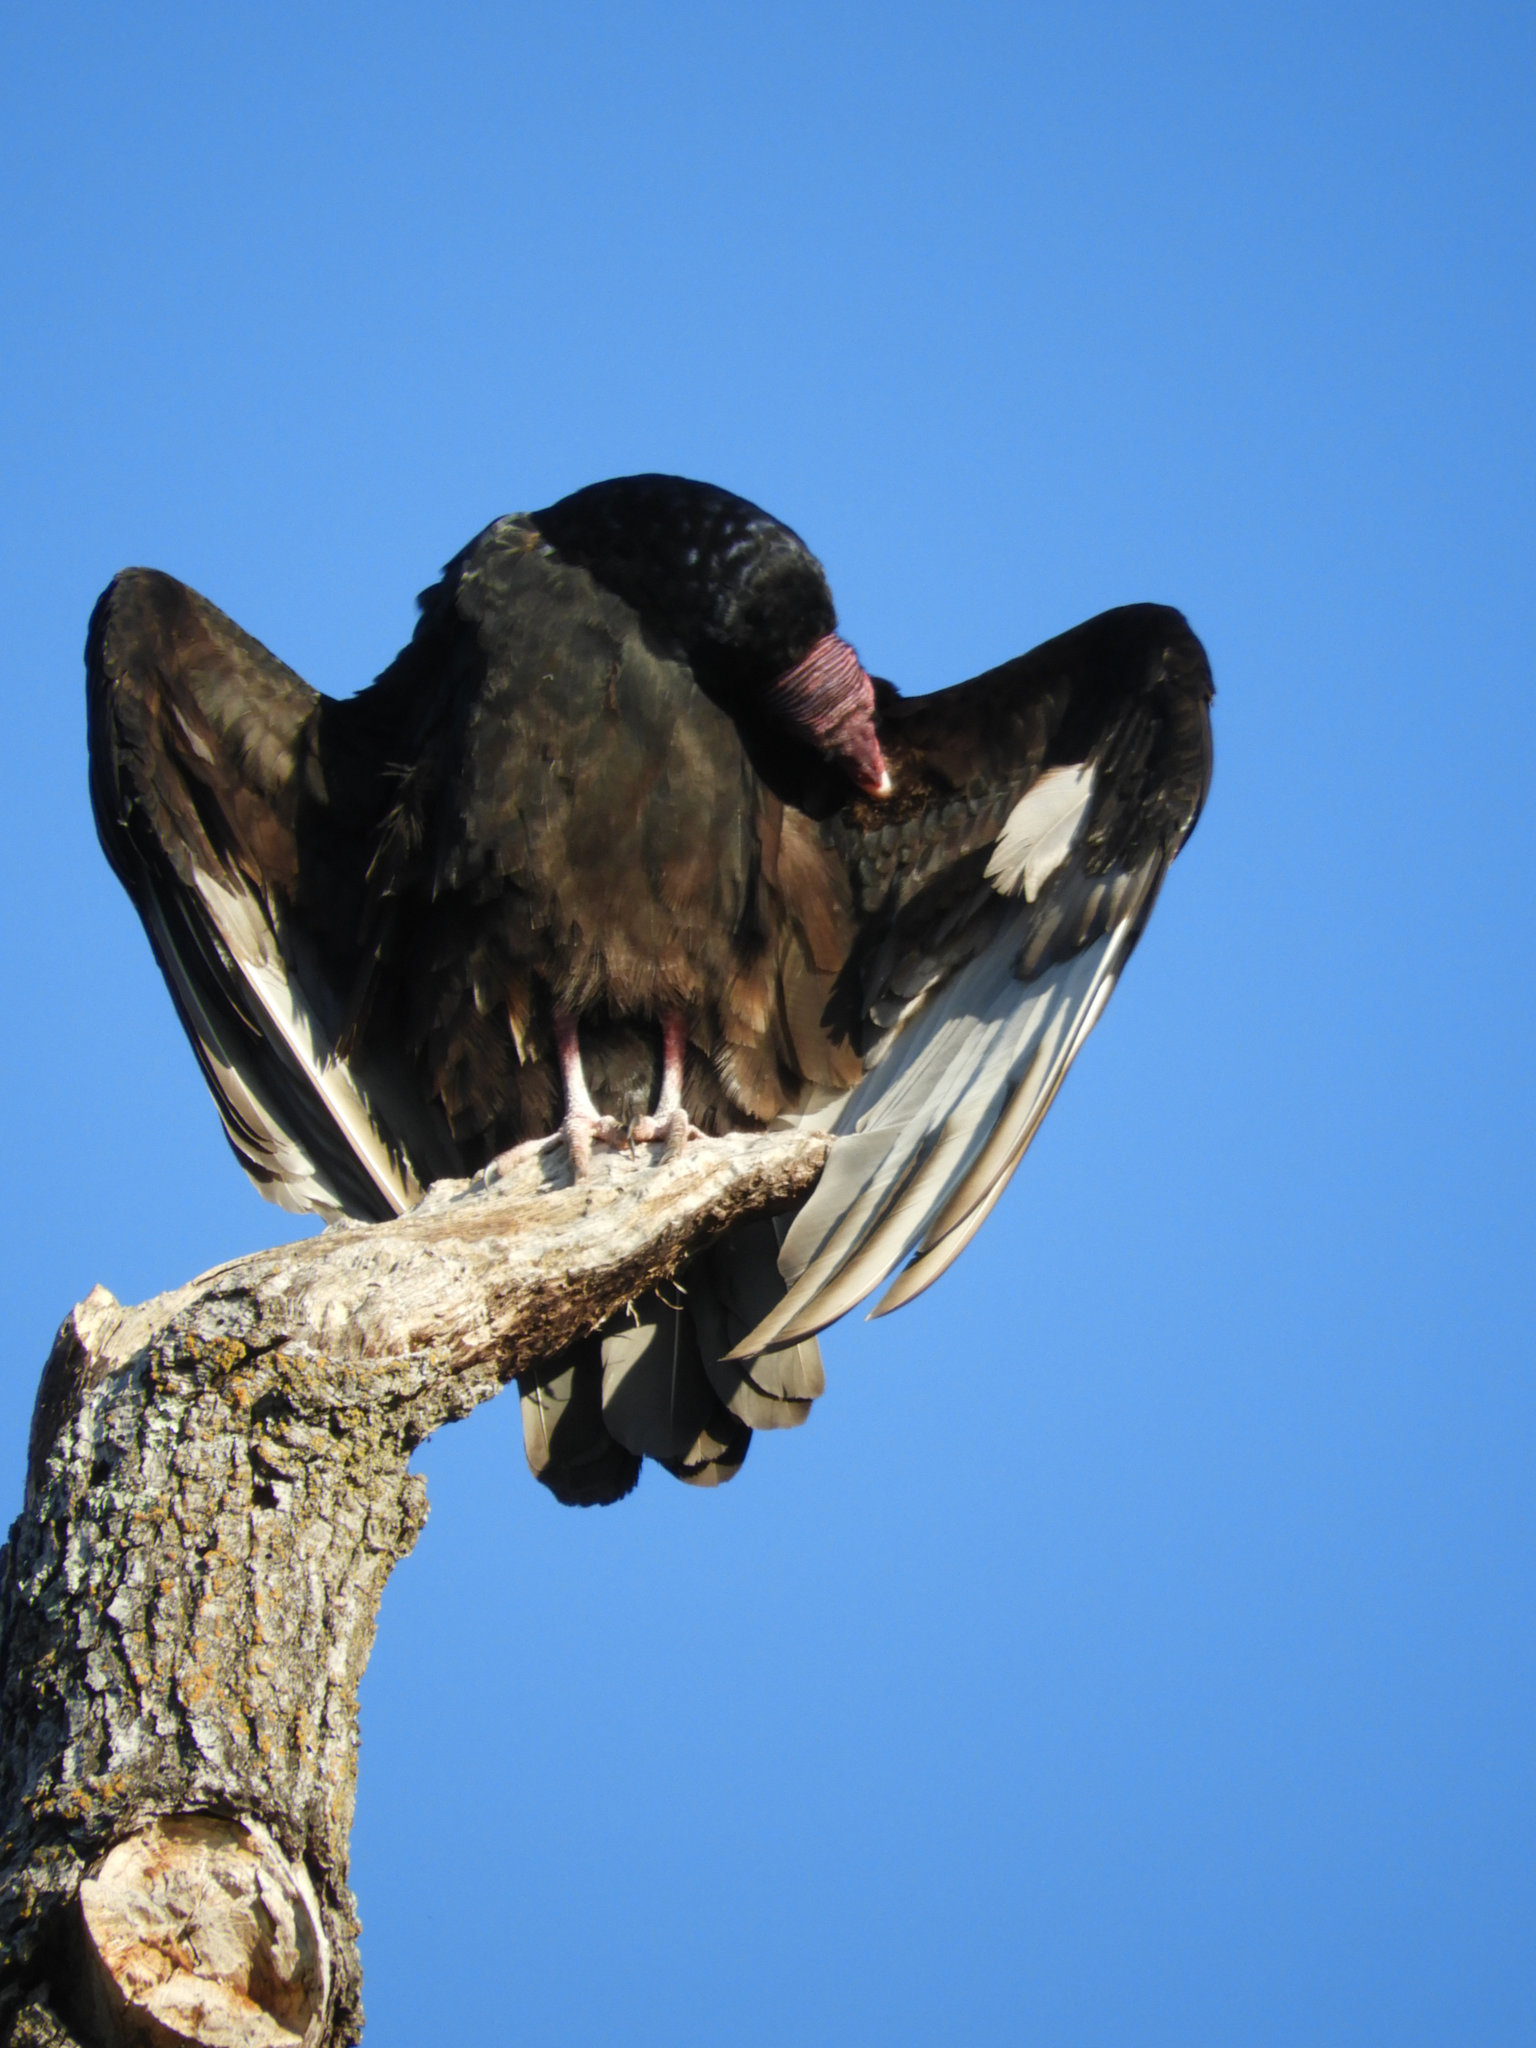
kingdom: Animalia
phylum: Chordata
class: Aves
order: Accipitriformes
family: Cathartidae
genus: Cathartes
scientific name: Cathartes aura
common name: Turkey vulture
